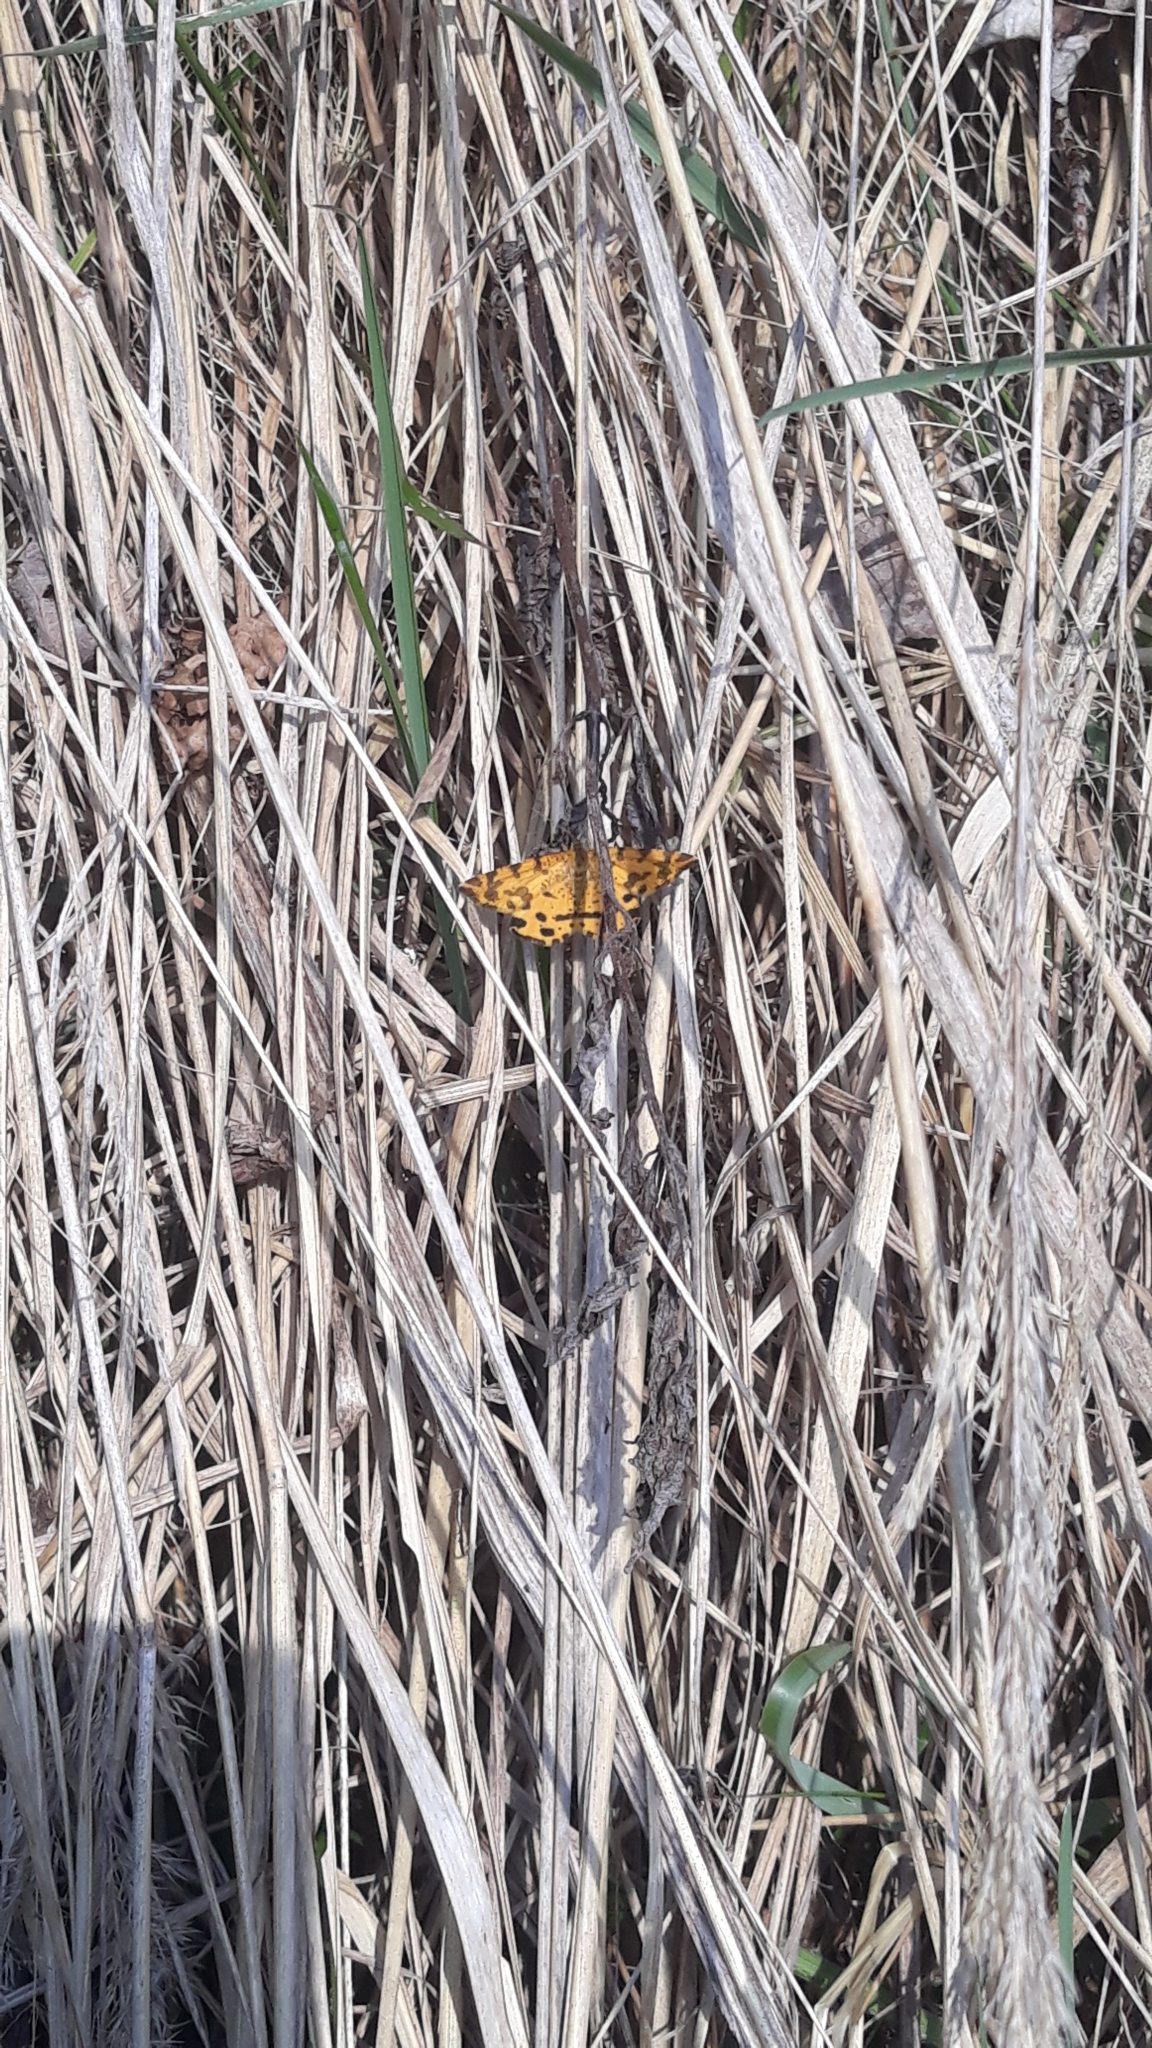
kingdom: Animalia
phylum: Arthropoda
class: Insecta
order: Lepidoptera
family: Geometridae
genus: Pseudopanthera
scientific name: Pseudopanthera macularia
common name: Speckled yellow
